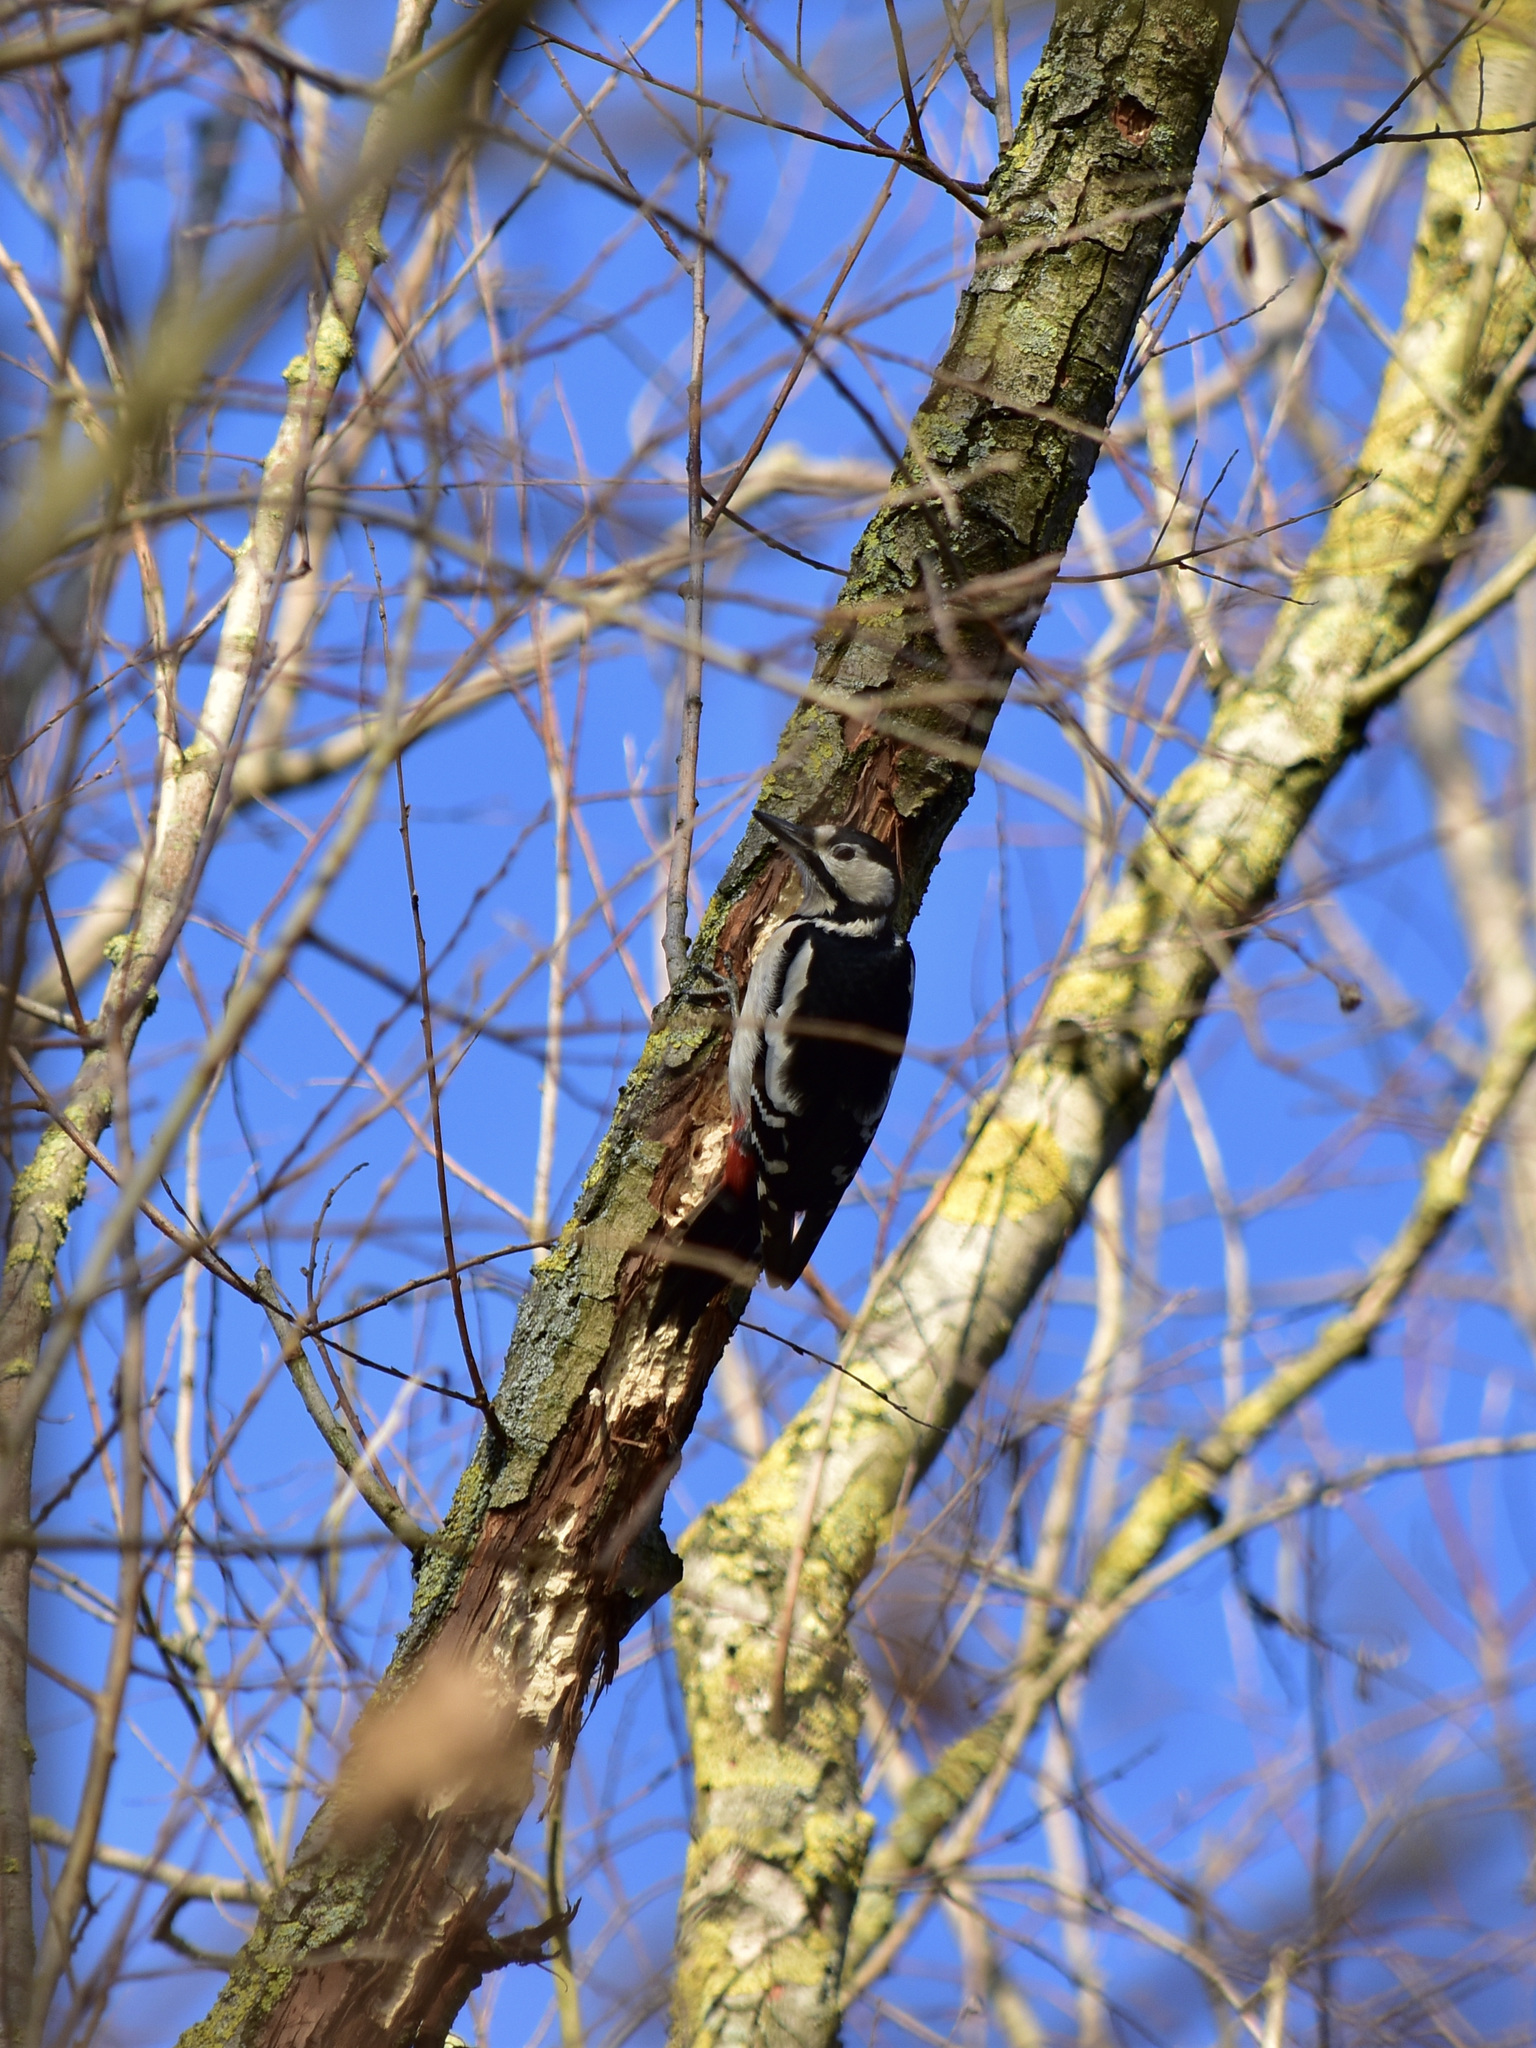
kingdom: Animalia
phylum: Chordata
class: Aves
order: Piciformes
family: Picidae
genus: Dendrocopos
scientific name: Dendrocopos major
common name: Great spotted woodpecker
